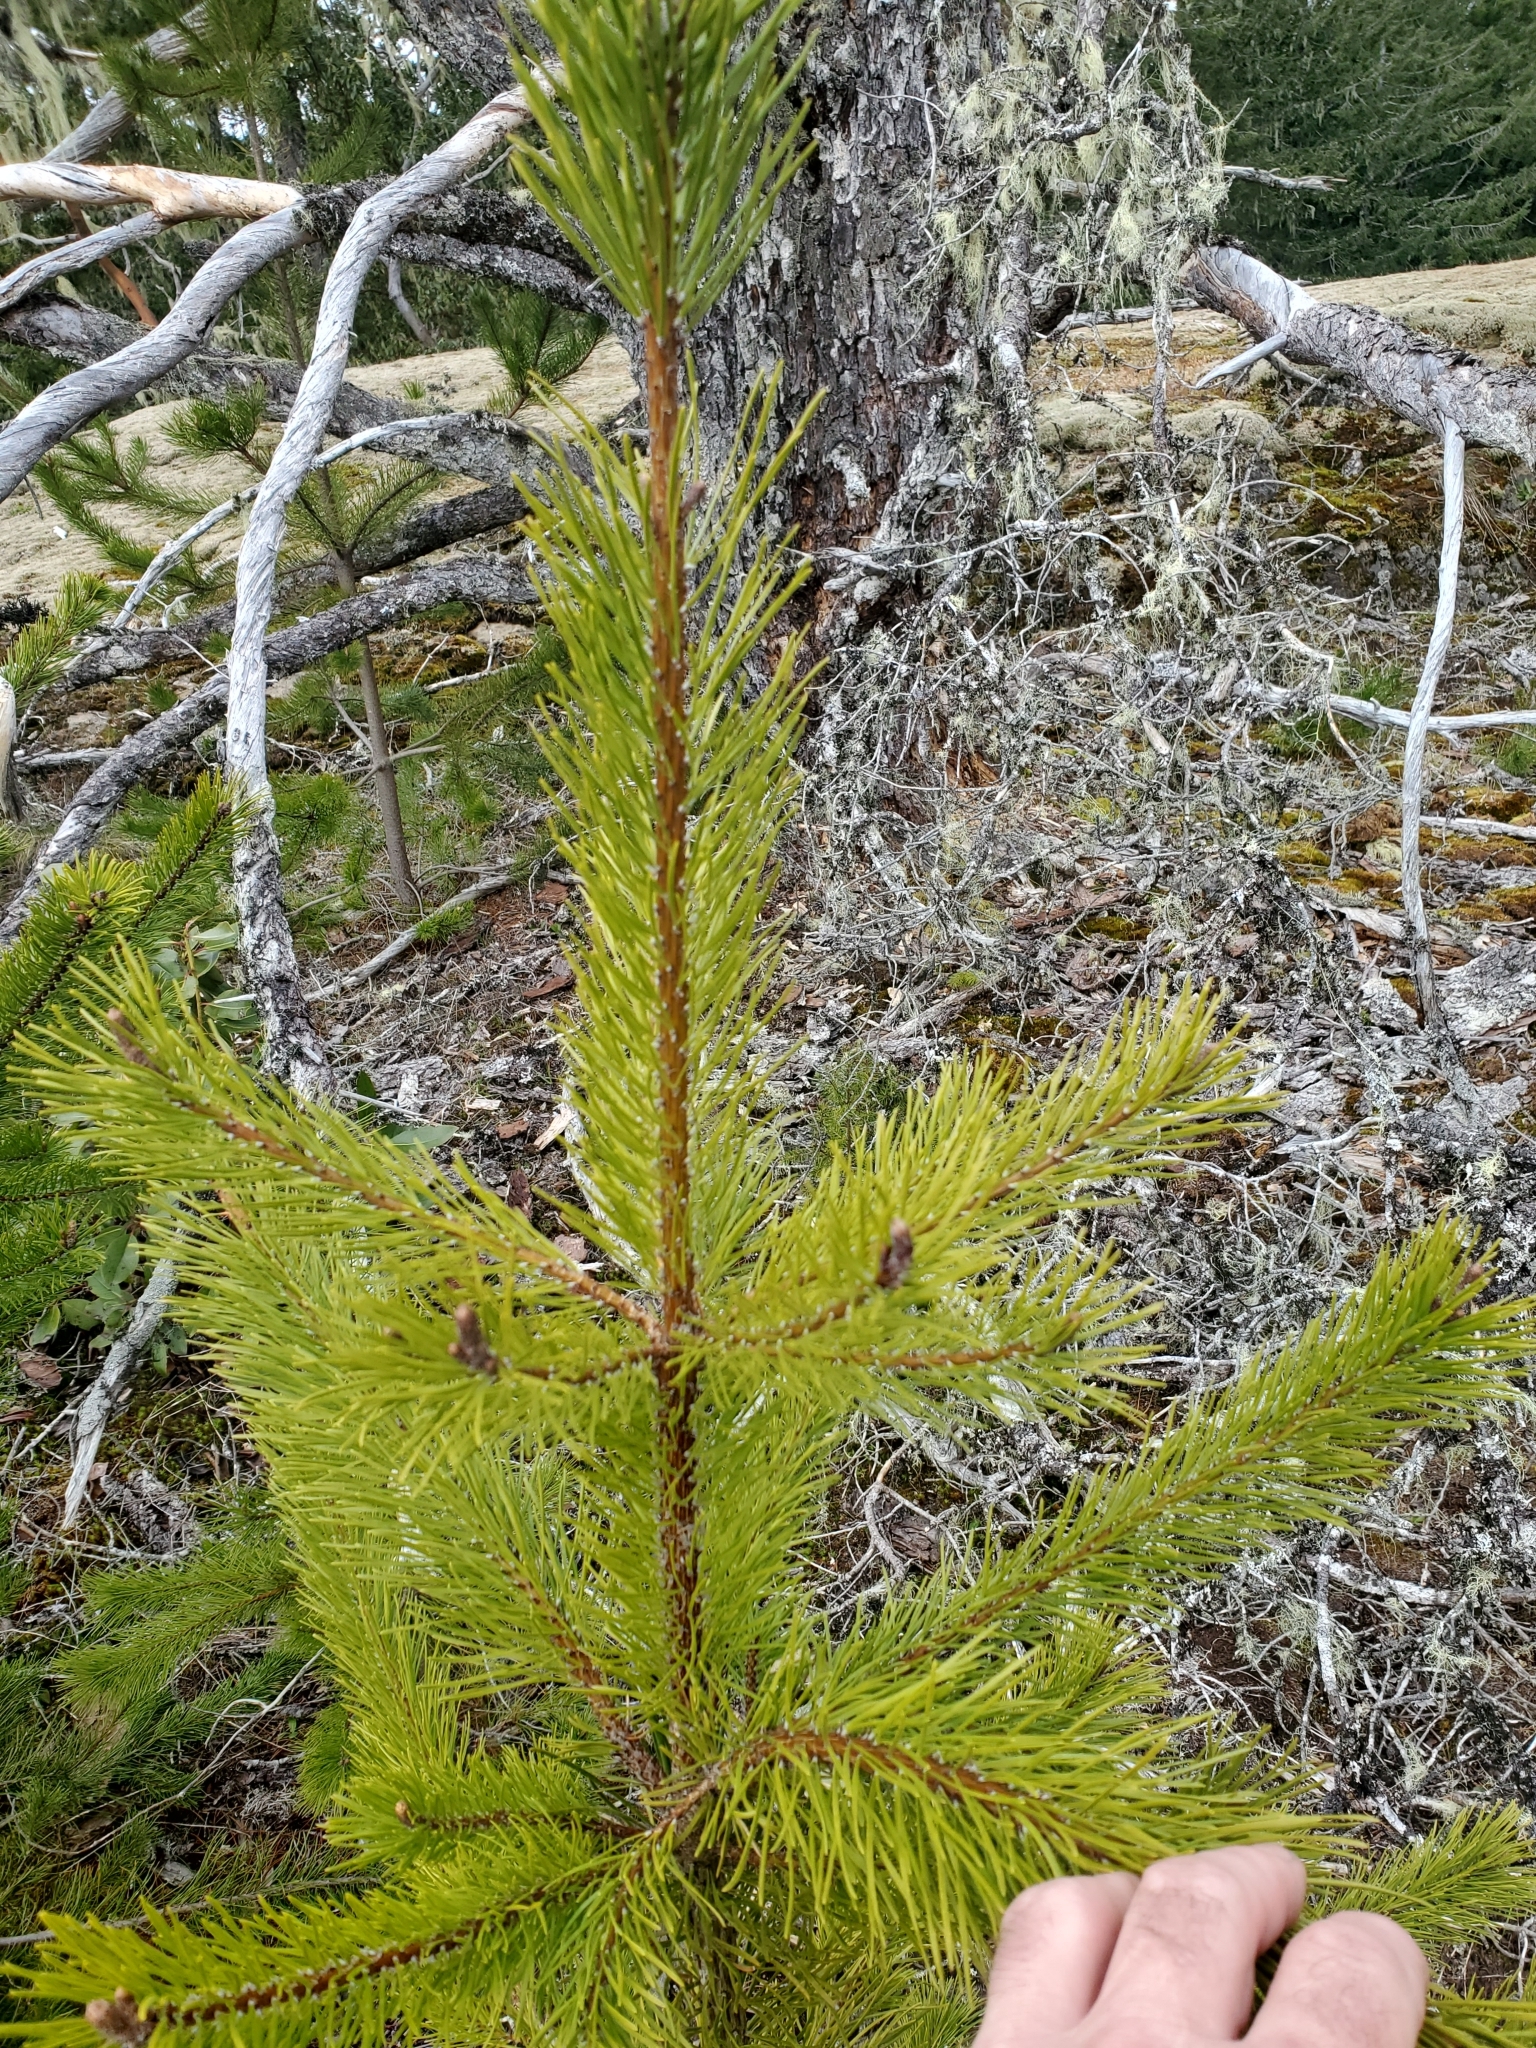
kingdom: Plantae
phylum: Tracheophyta
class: Pinopsida
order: Pinales
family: Pinaceae
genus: Pinus
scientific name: Pinus contorta
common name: Lodgepole pine
